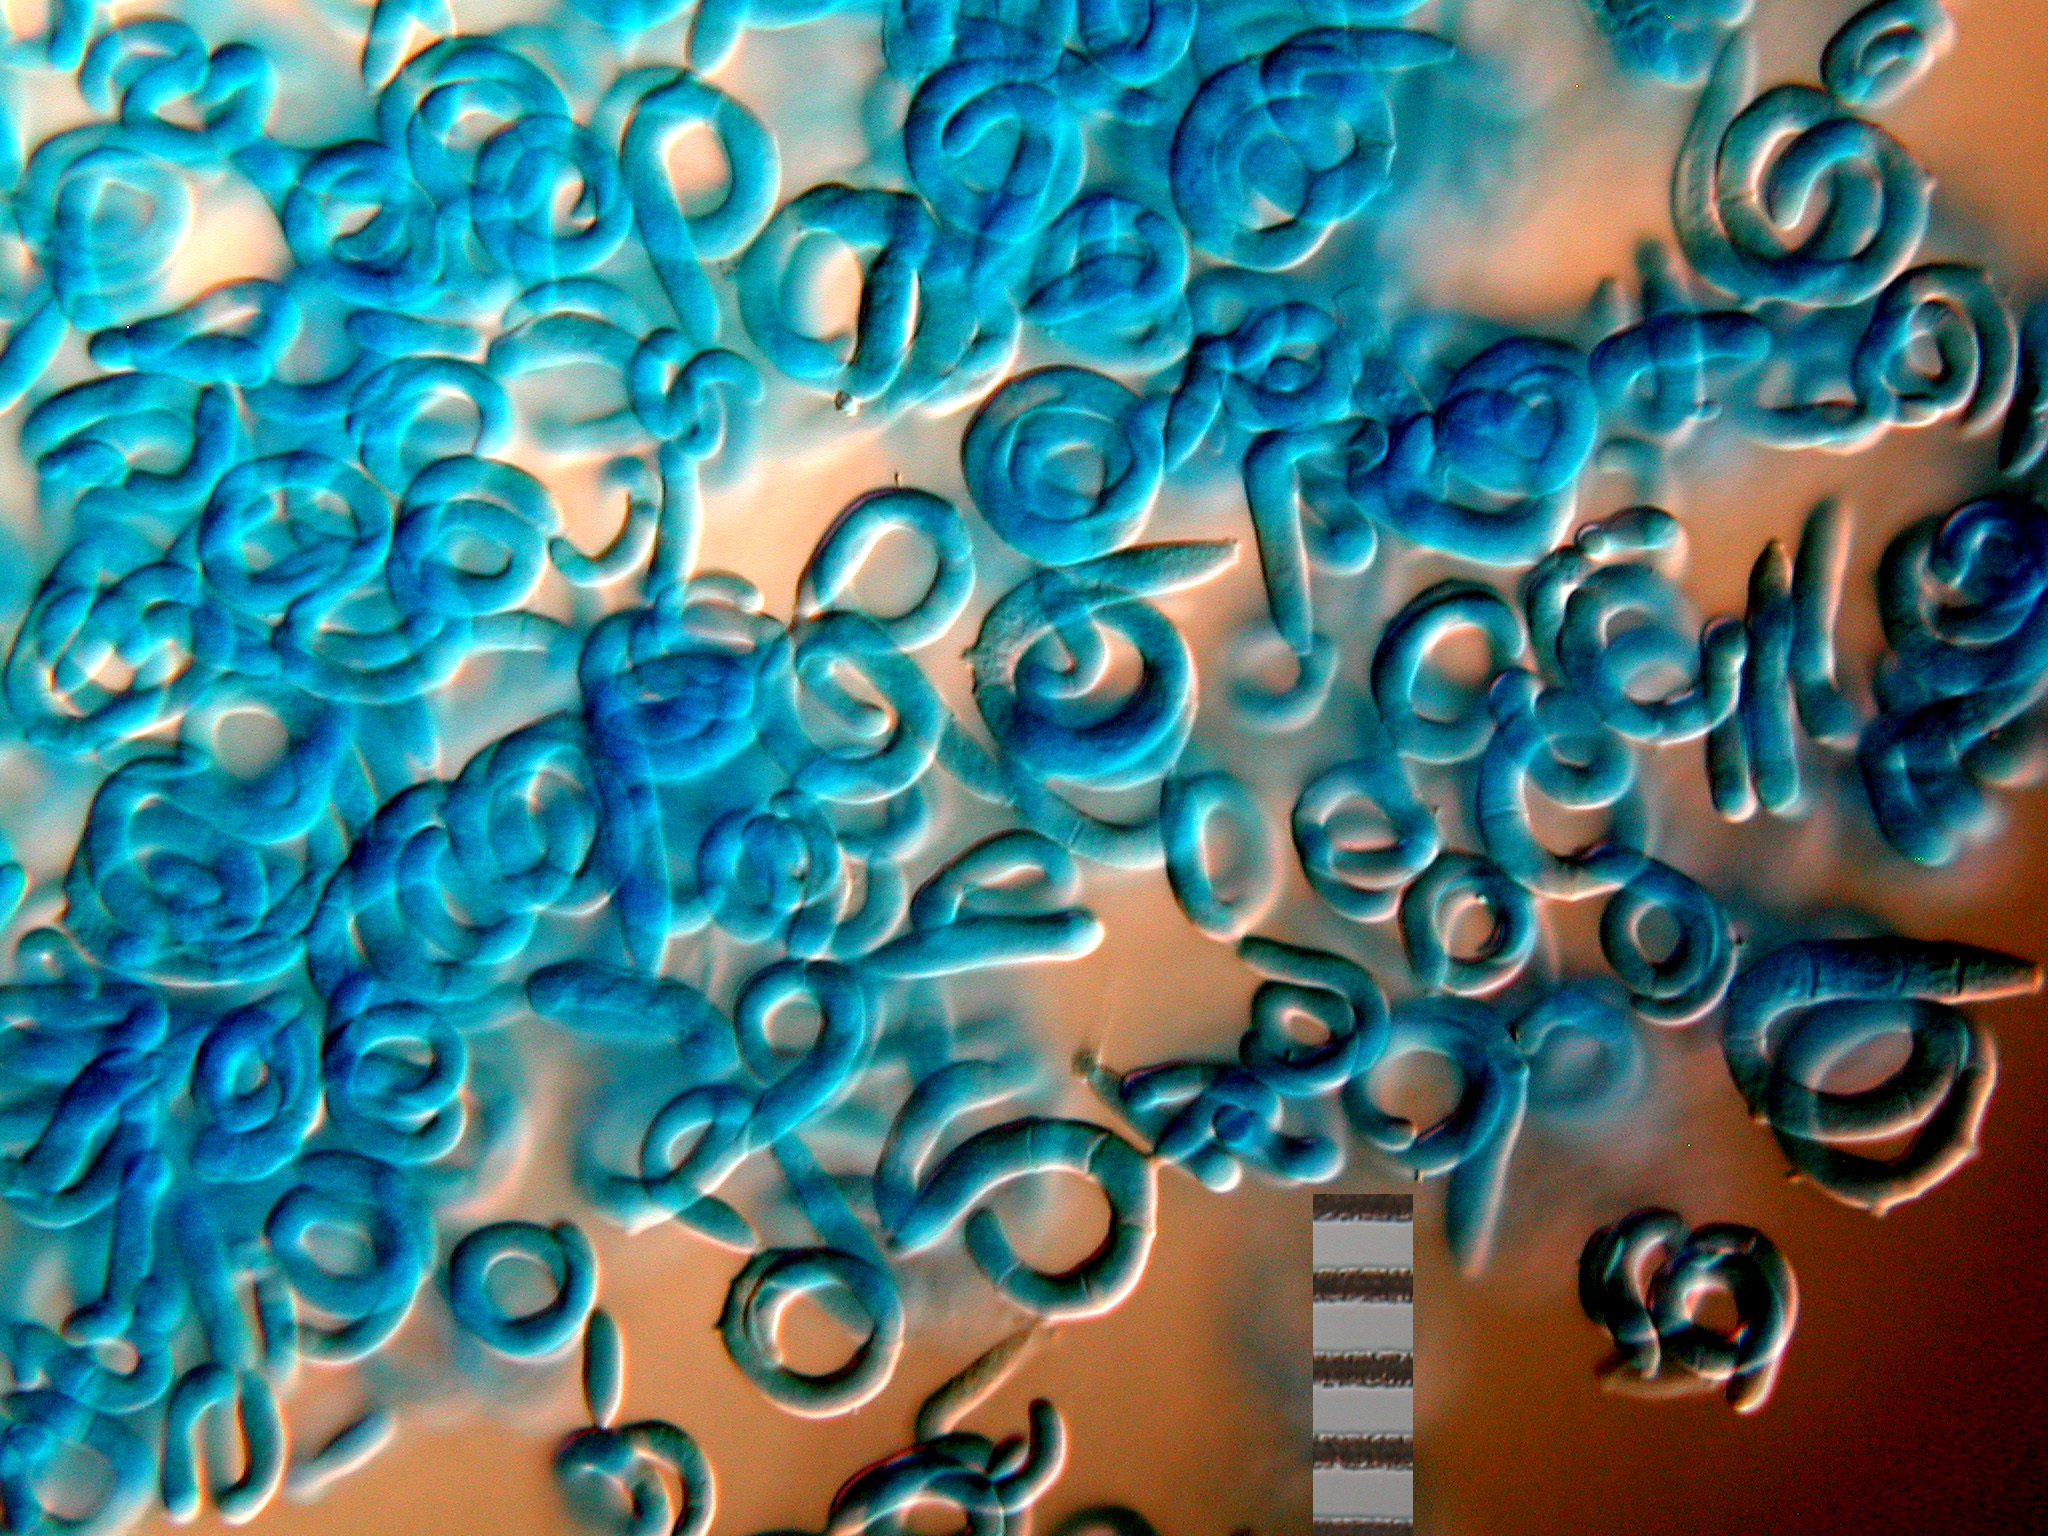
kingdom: Fungi
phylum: Ascomycota
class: Leotiomycetes
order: Helotiales
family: Helotiaceae
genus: Helicodendron
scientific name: Helicodendron triglitziense
